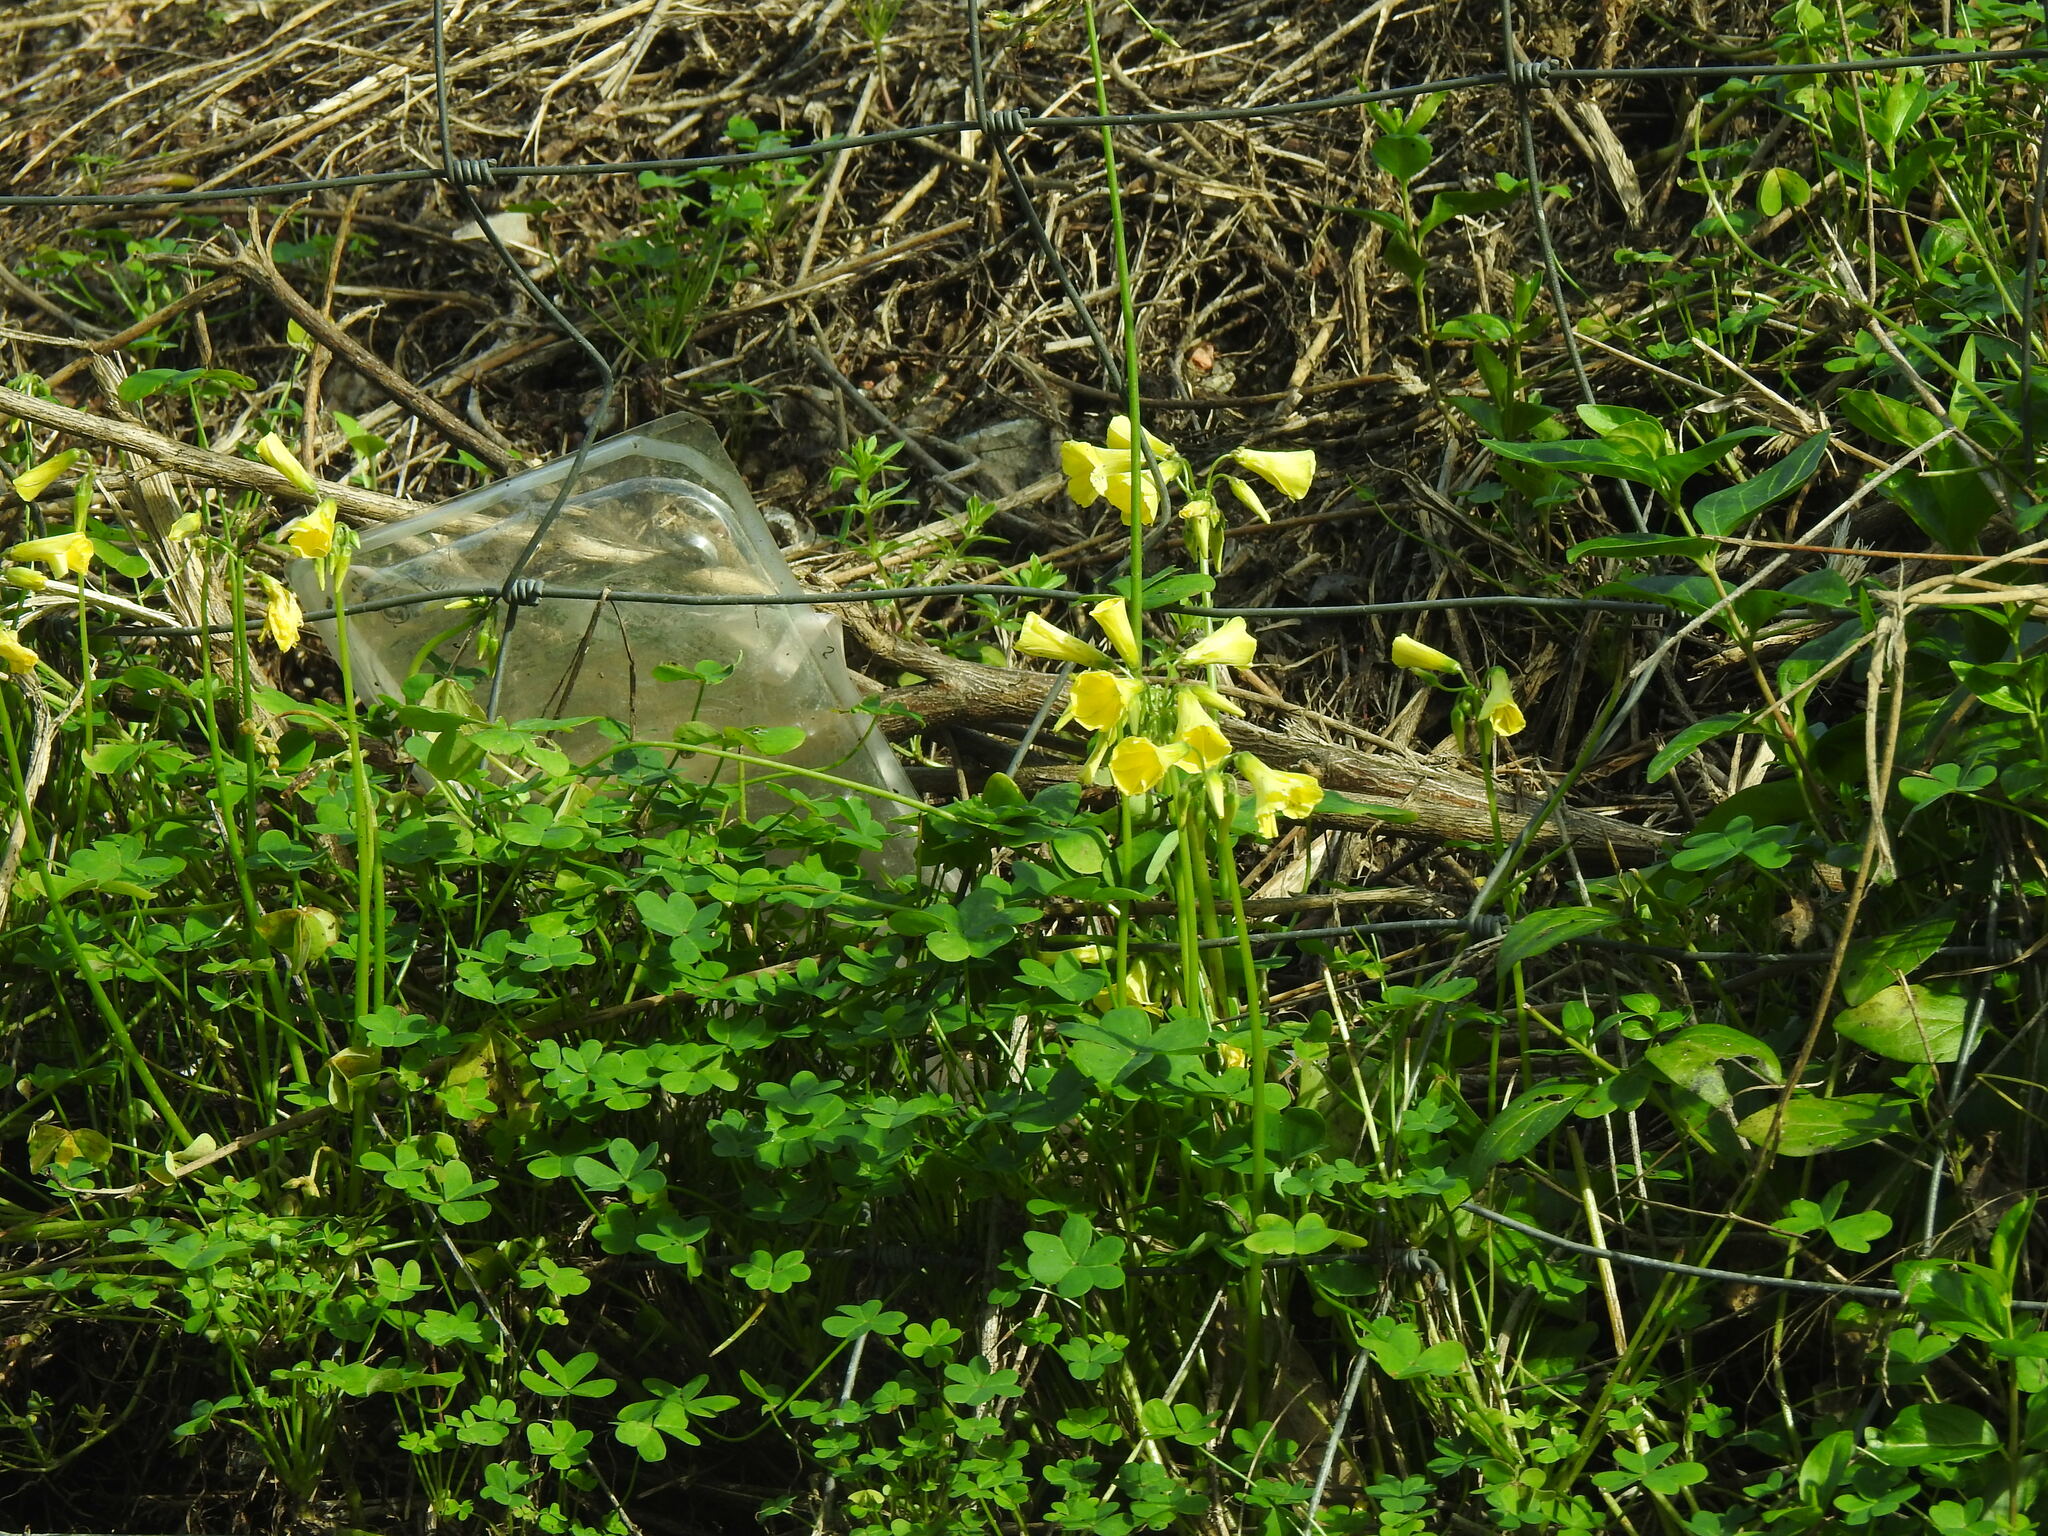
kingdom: Plantae
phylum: Tracheophyta
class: Magnoliopsida
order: Oxalidales
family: Oxalidaceae
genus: Oxalis
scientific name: Oxalis pes-caprae
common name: Bermuda-buttercup
